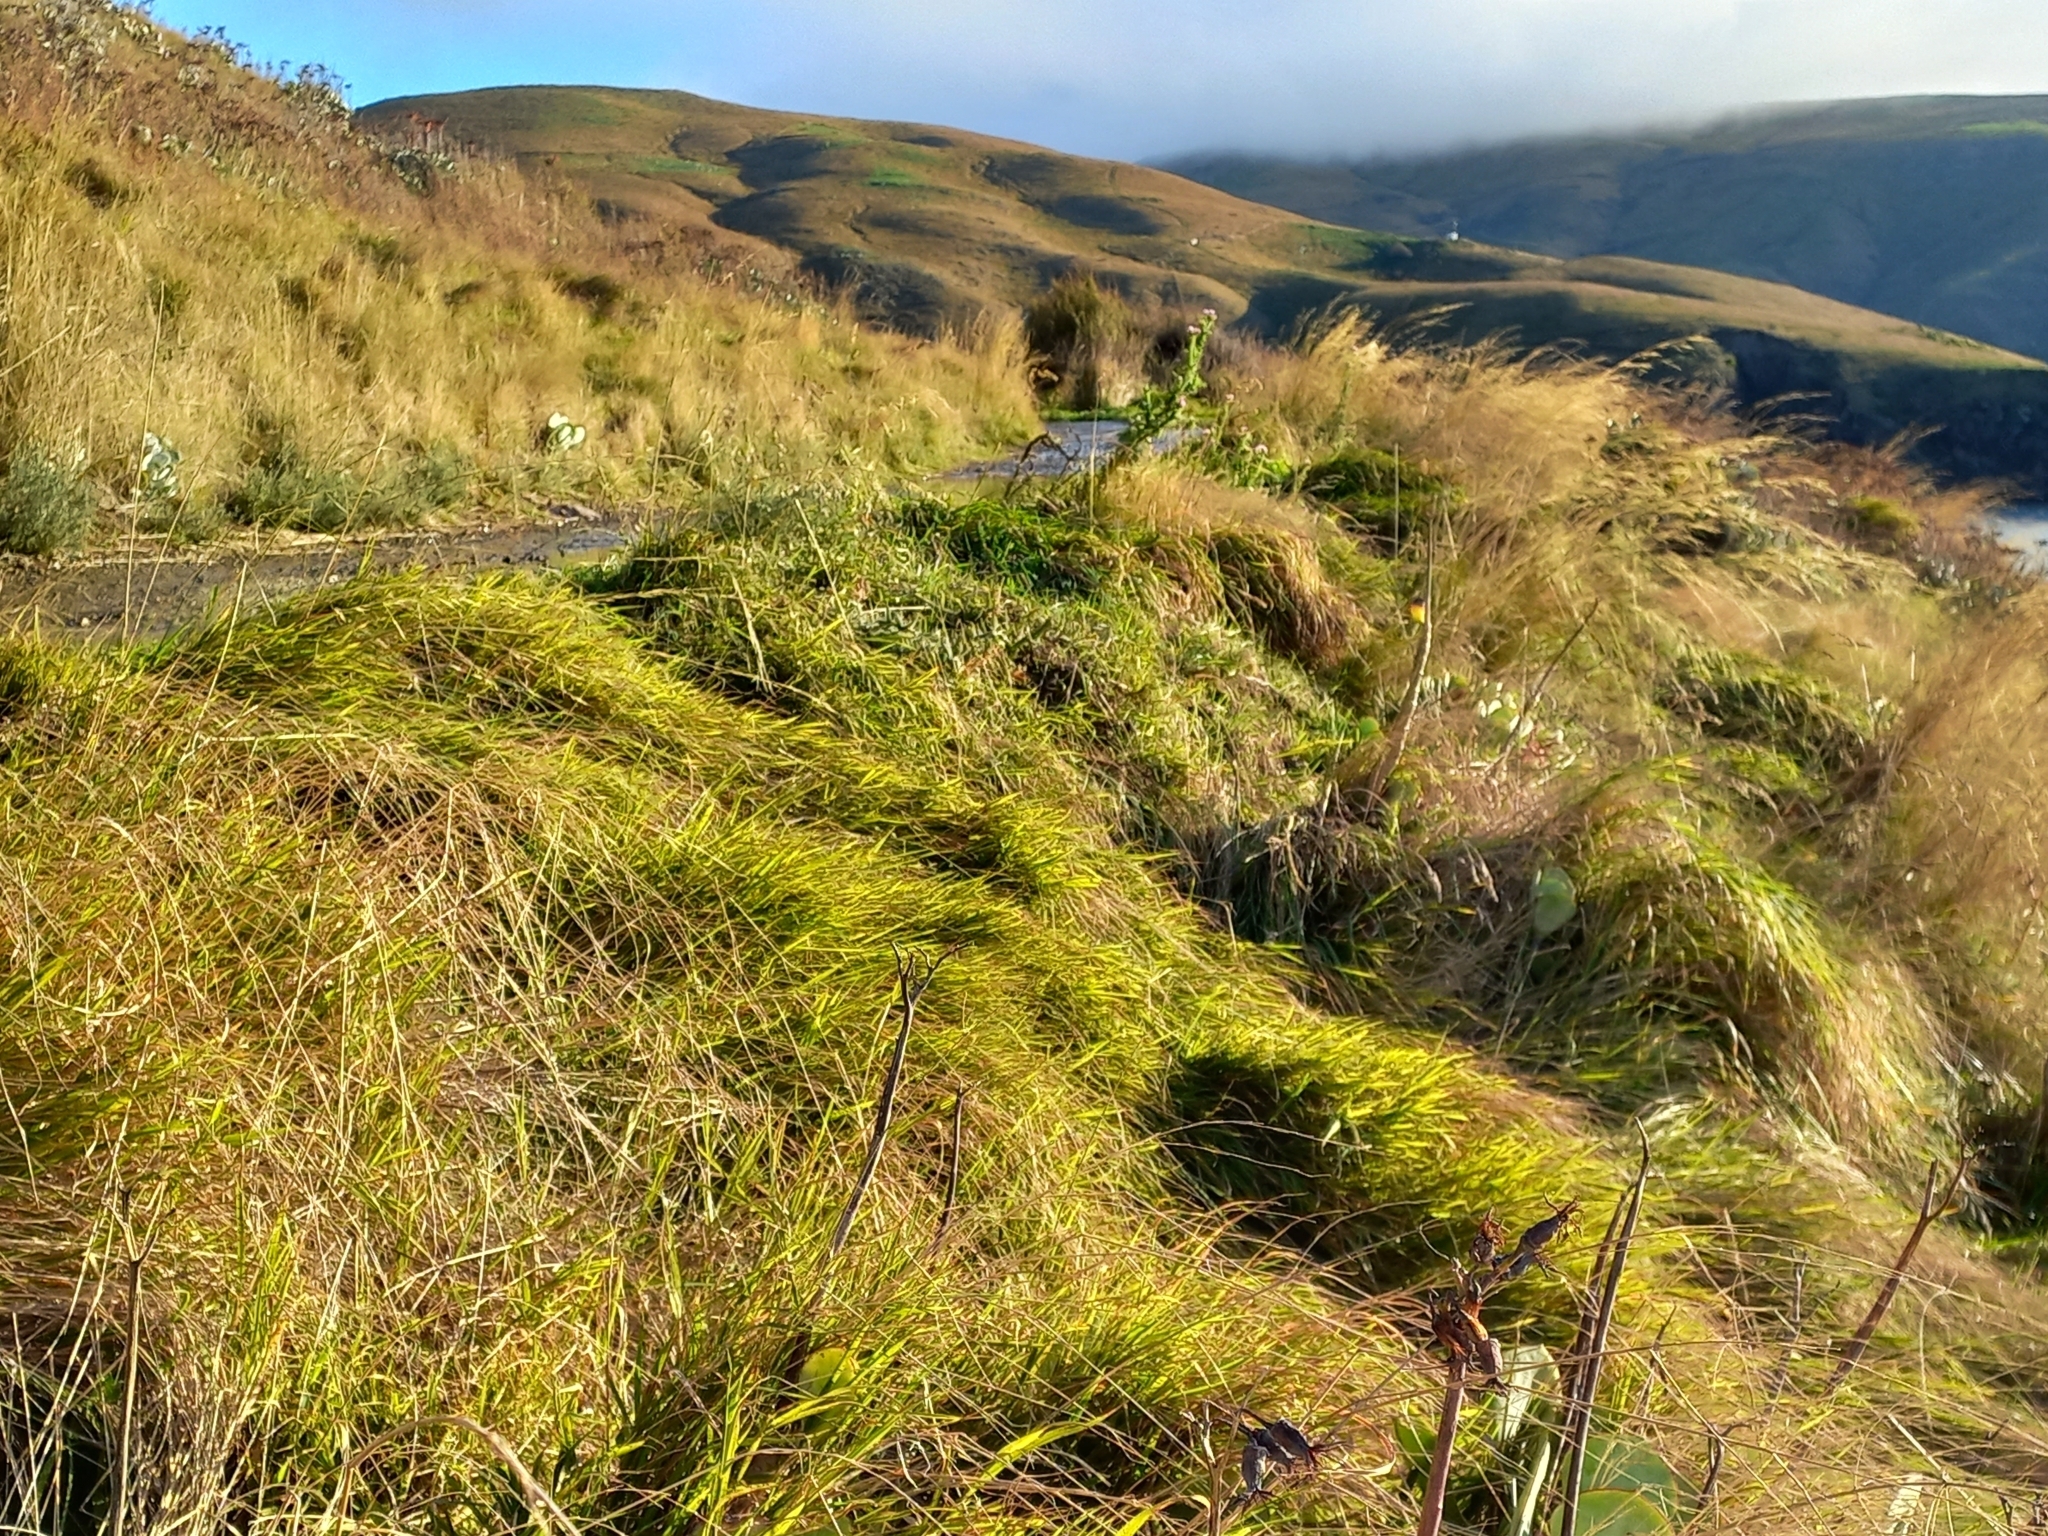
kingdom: Plantae
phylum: Tracheophyta
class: Liliopsida
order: Poales
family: Poaceae
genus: Microlaena
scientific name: Microlaena stipoides
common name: Meadow ricegrass
